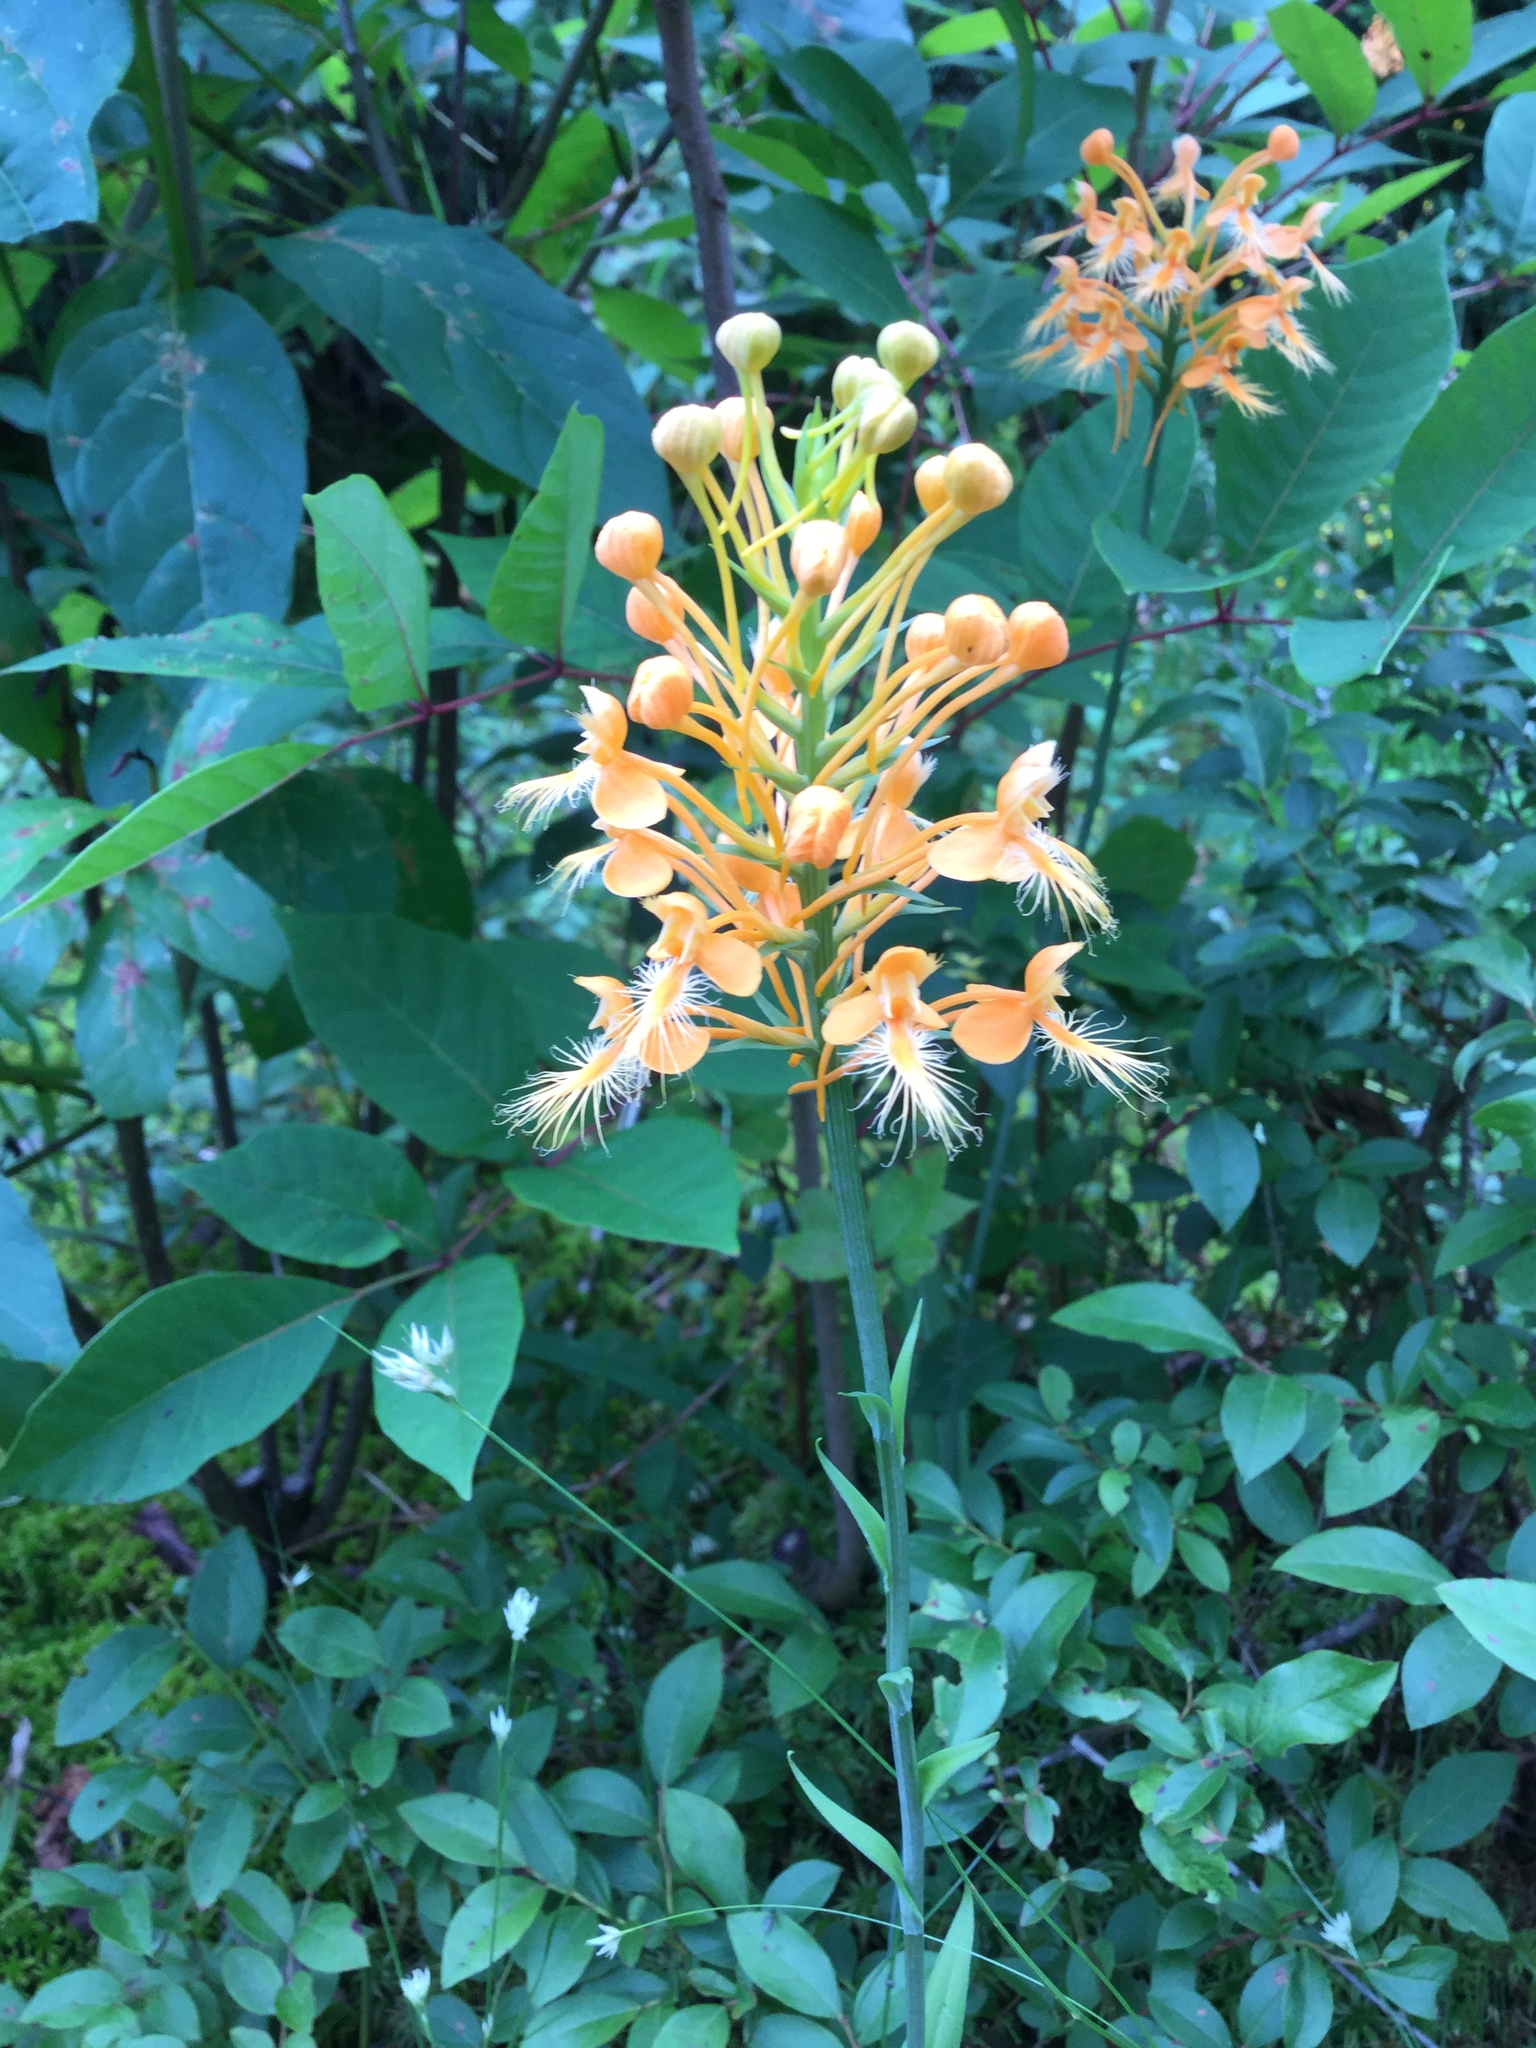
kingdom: Plantae
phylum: Tracheophyta
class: Liliopsida
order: Asparagales
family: Orchidaceae
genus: Platanthera
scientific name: Platanthera ciliaris
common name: Yellow fringed orchid
